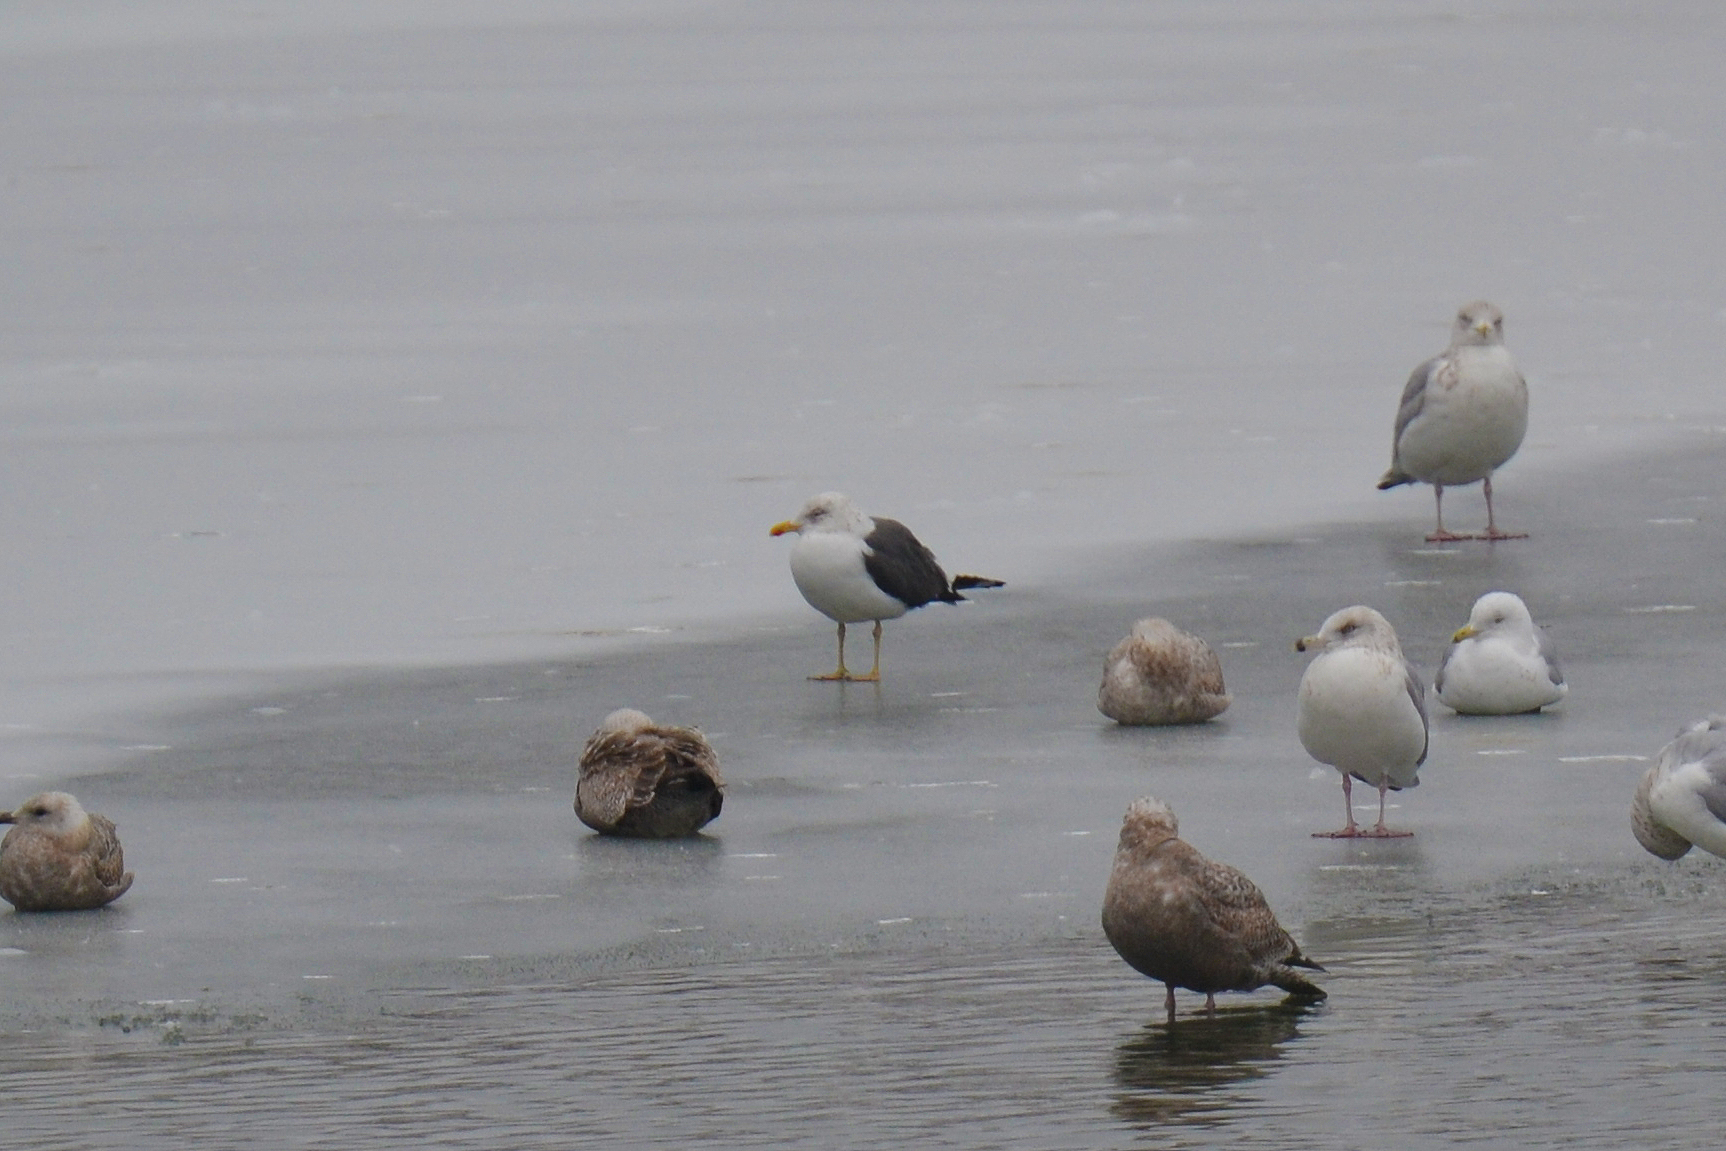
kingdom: Animalia
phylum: Chordata
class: Aves
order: Charadriiformes
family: Laridae
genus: Larus
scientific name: Larus fuscus
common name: Lesser black-backed gull
